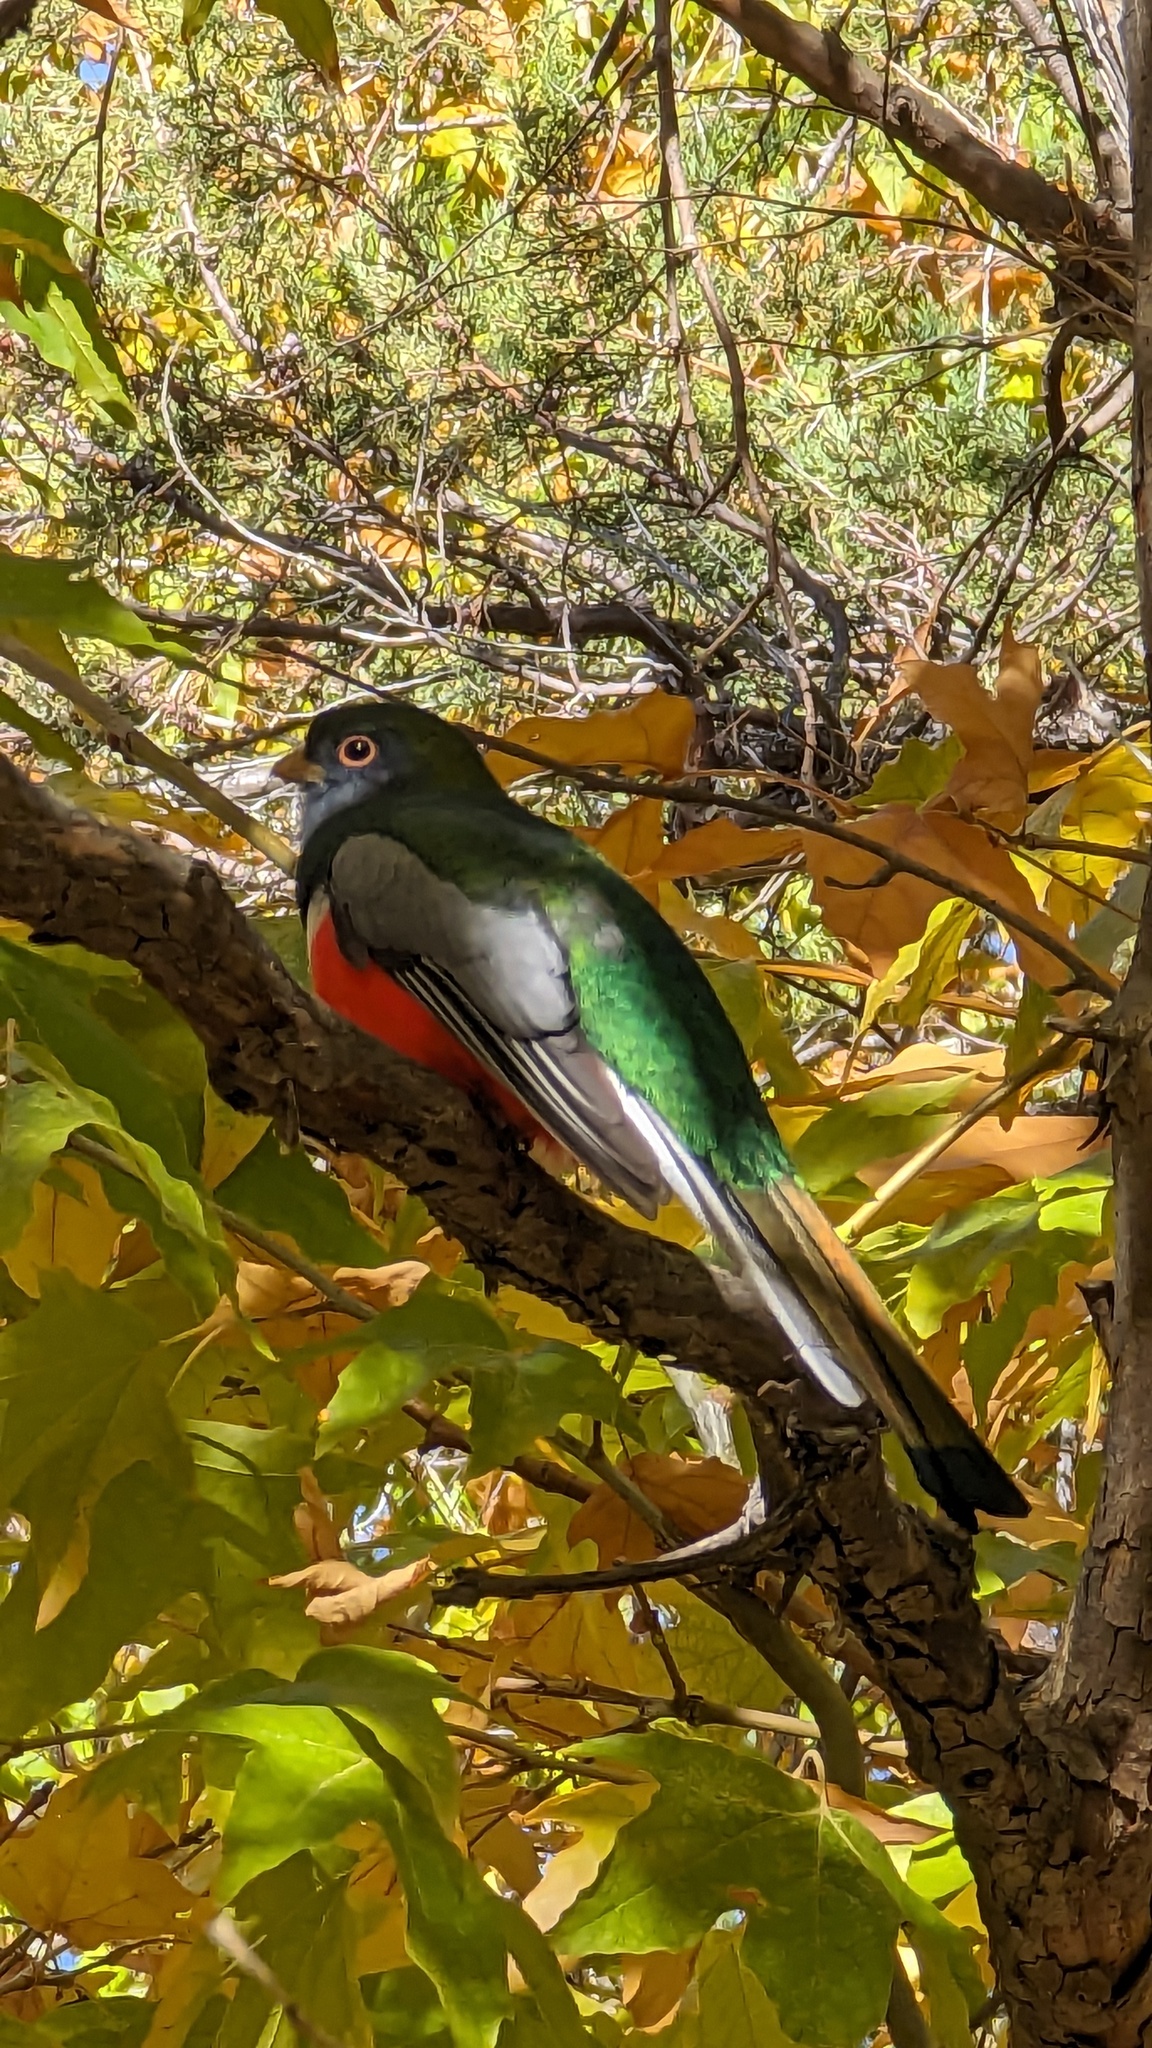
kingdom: Animalia
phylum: Chordata
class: Aves
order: Trogoniformes
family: Trogonidae
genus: Trogon
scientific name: Trogon elegans
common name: Elegant trogon
